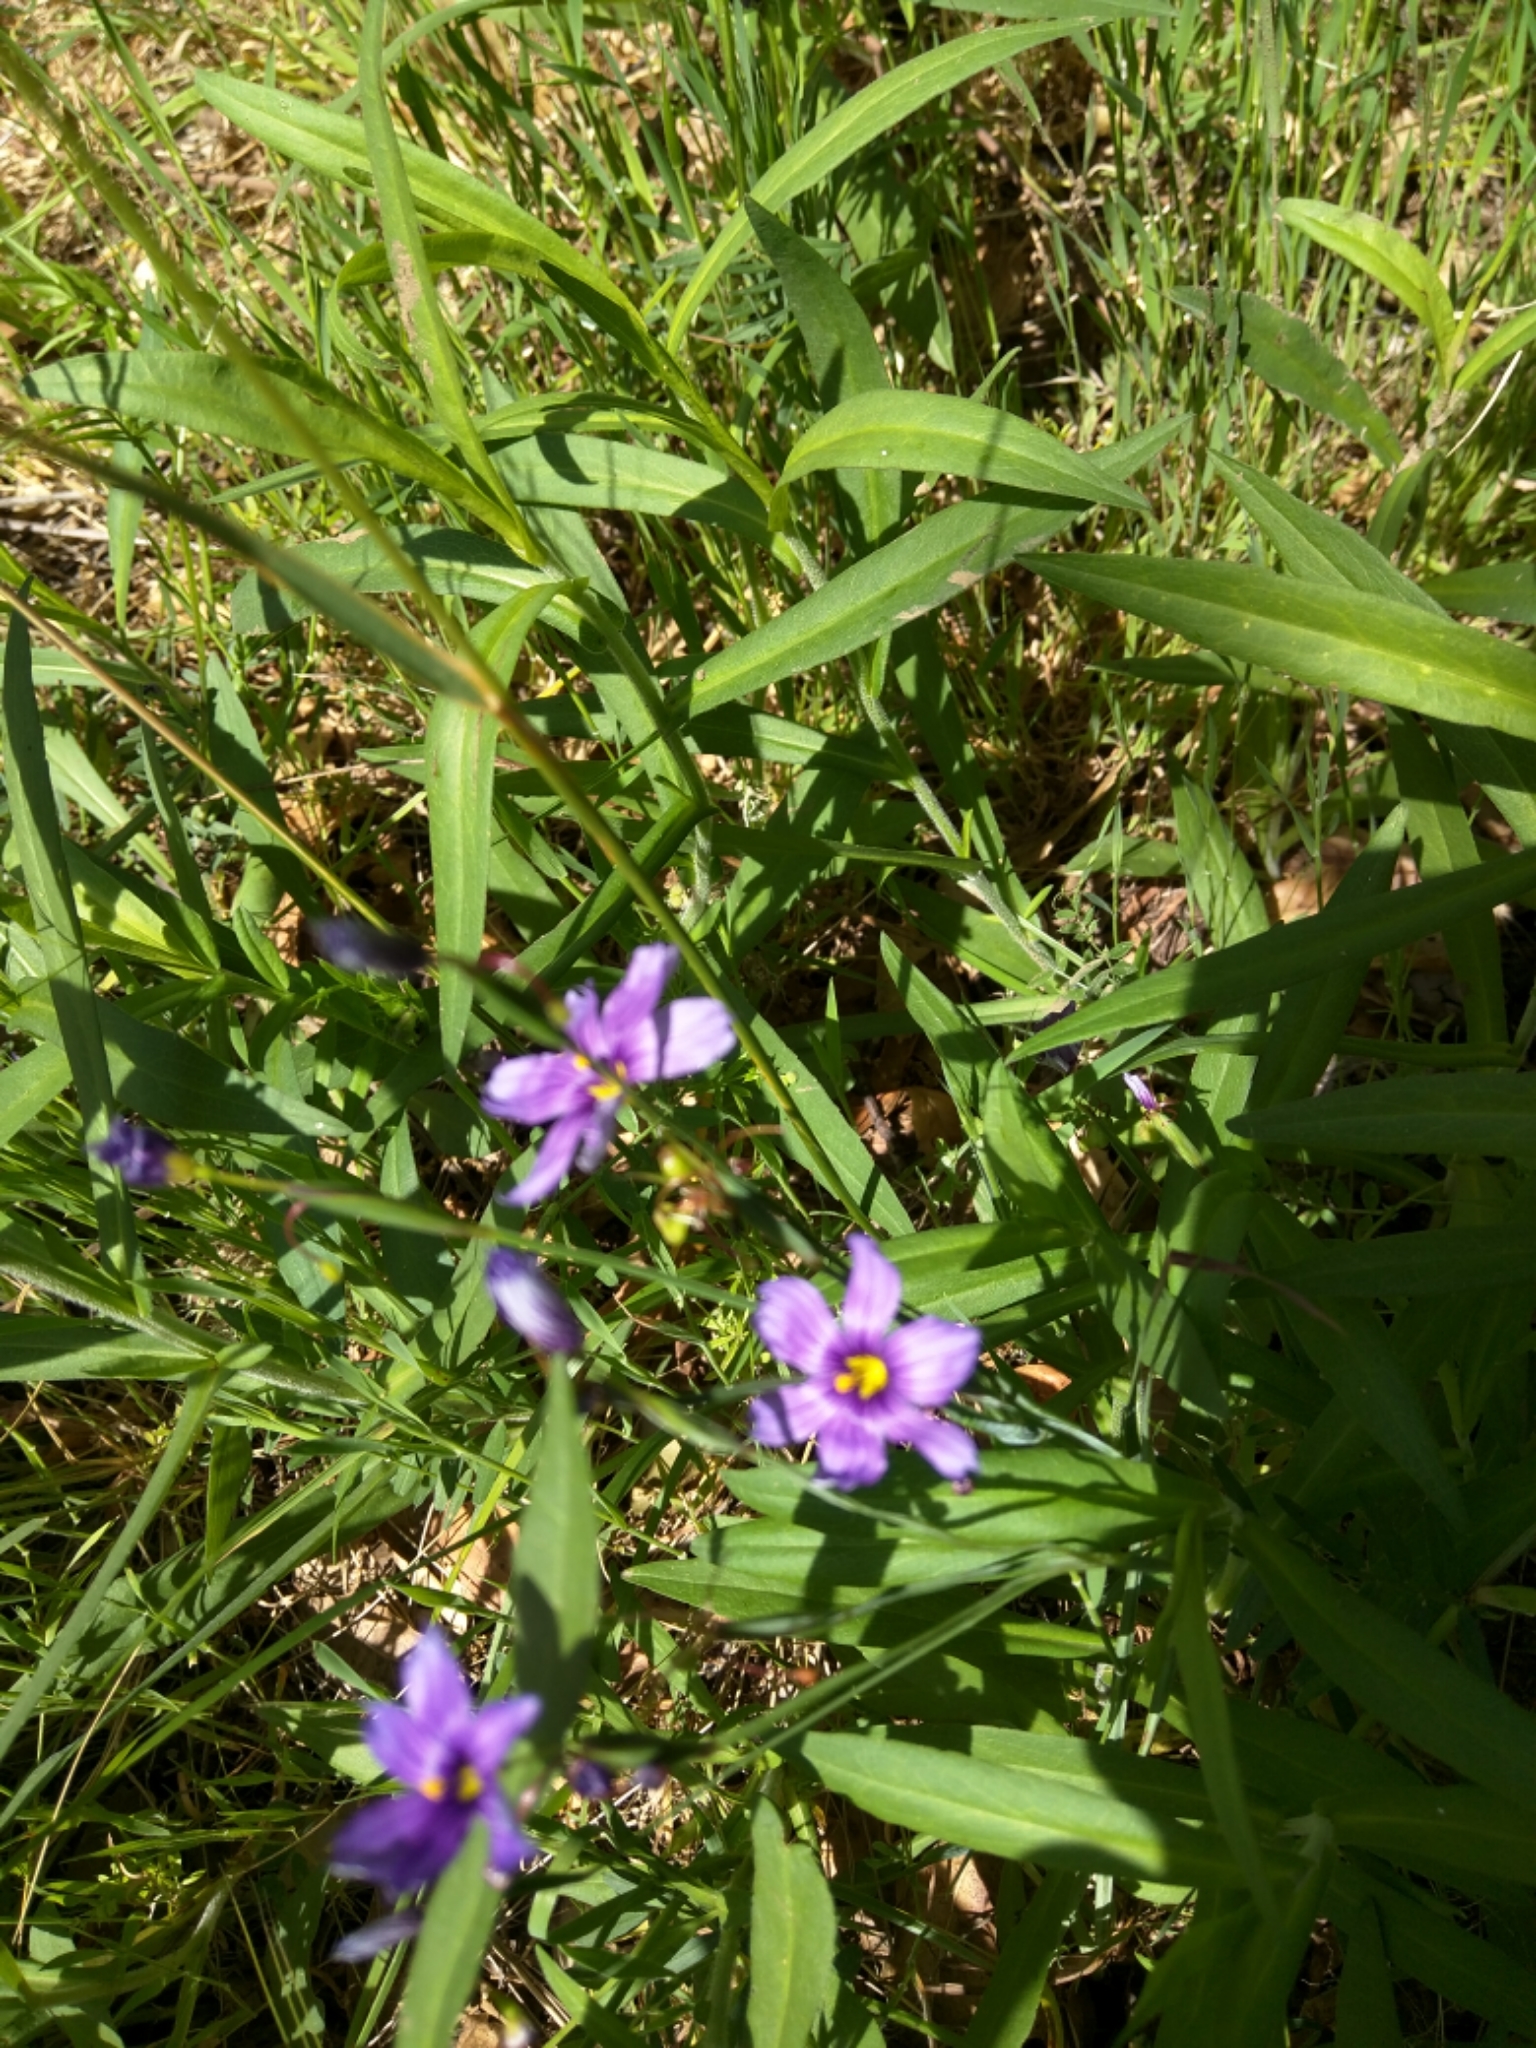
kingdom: Plantae
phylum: Tracheophyta
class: Liliopsida
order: Asparagales
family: Iridaceae
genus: Sisyrinchium
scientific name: Sisyrinchium bellum
